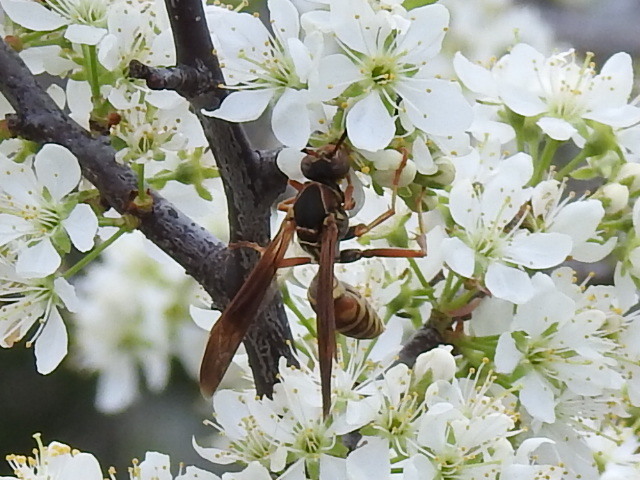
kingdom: Animalia
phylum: Arthropoda
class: Insecta
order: Hymenoptera
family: Eumenidae
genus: Polistes
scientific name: Polistes fuscatus
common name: Dark paper wasp
